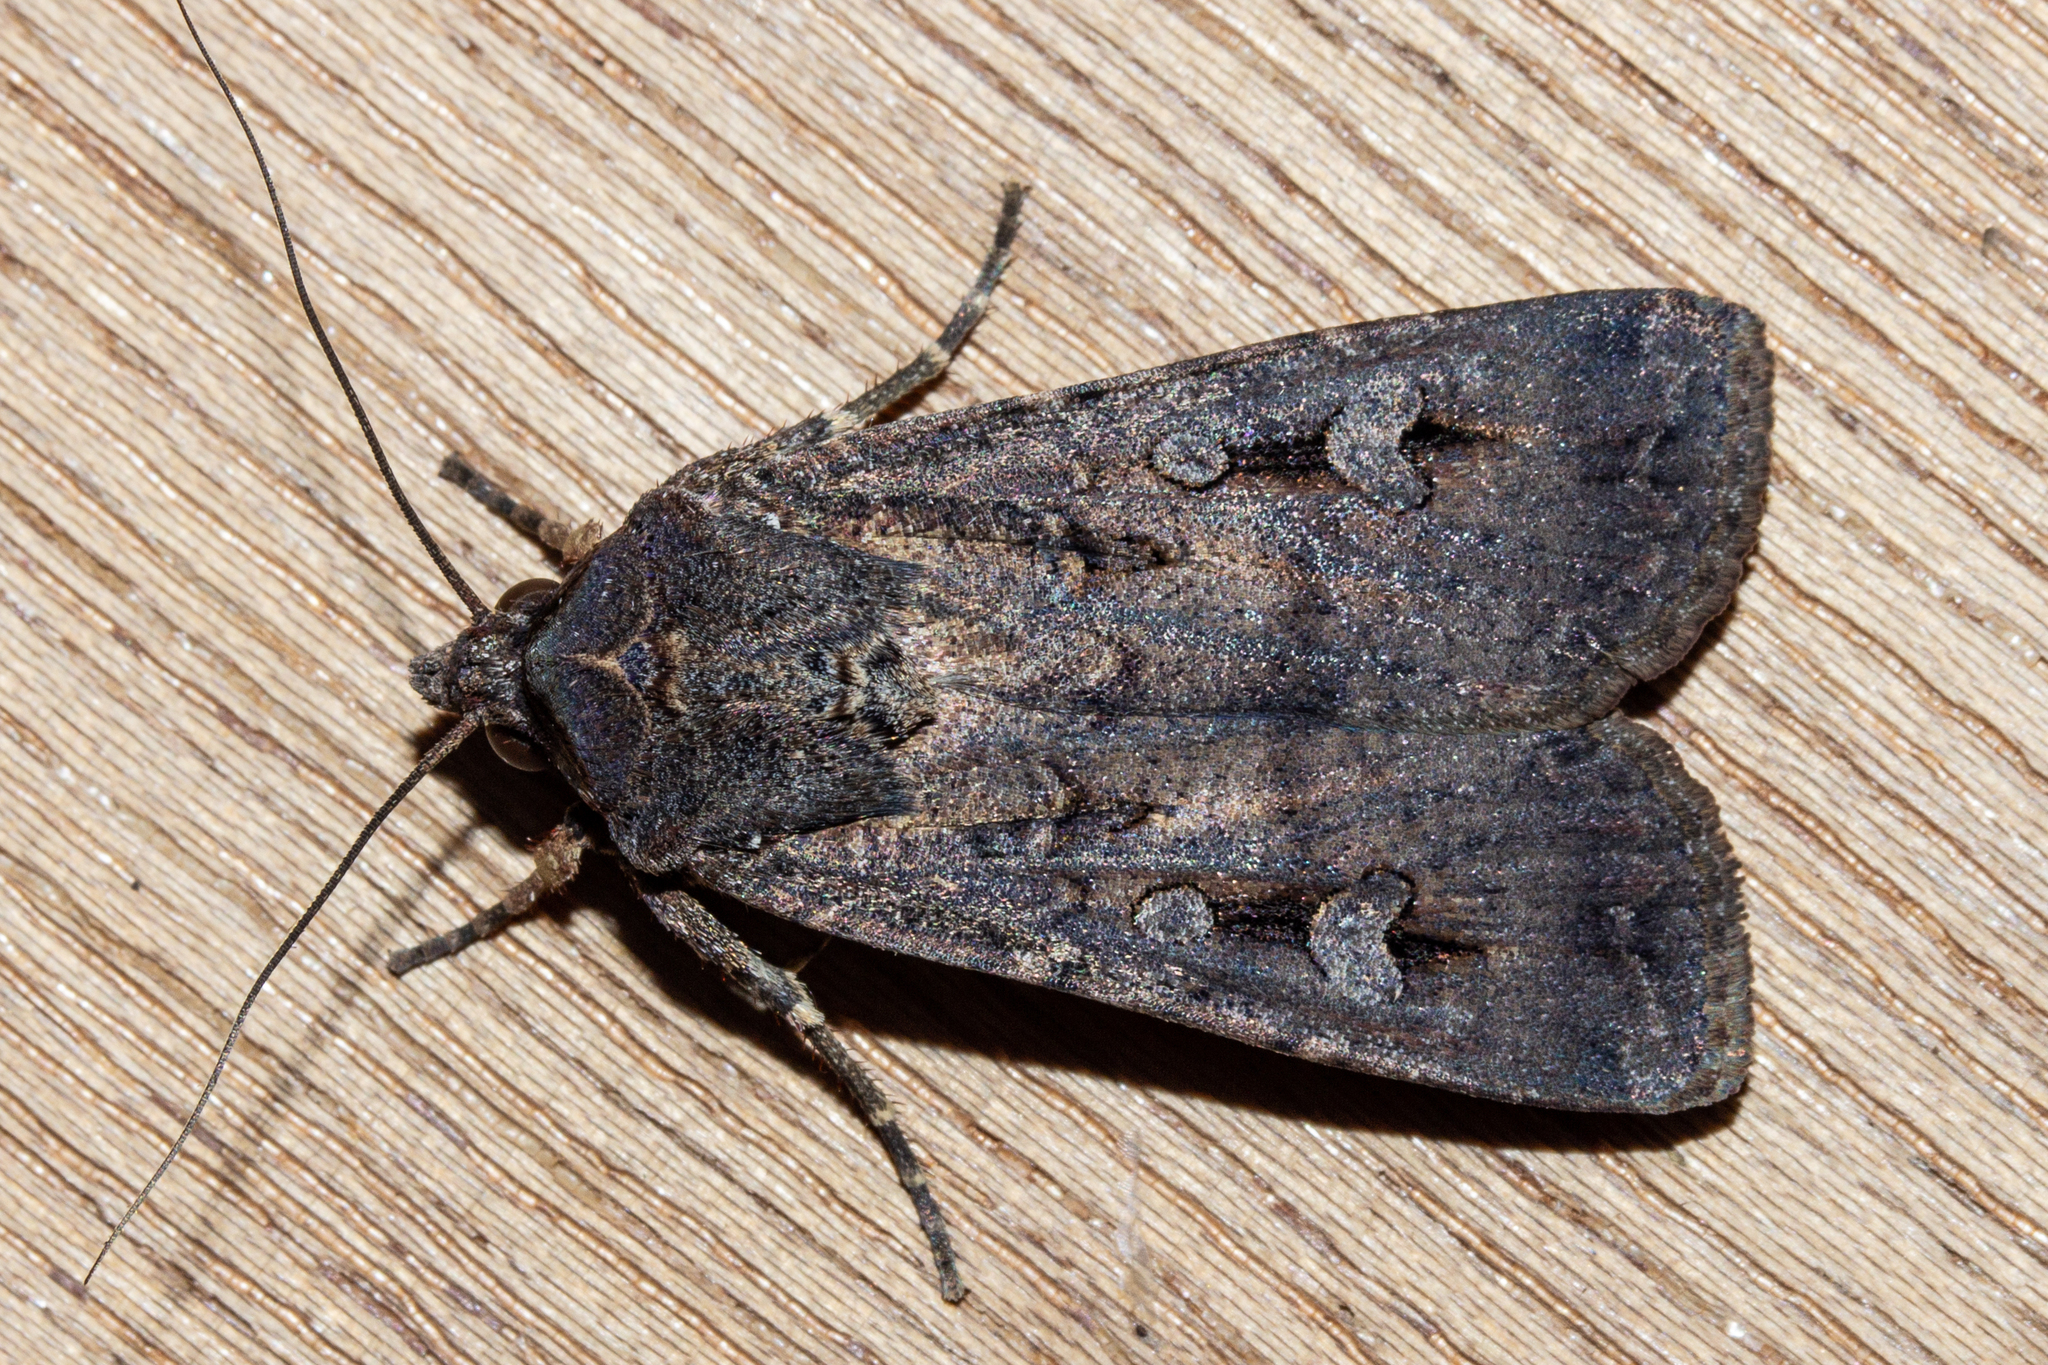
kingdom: Animalia
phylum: Arthropoda
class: Insecta
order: Lepidoptera
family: Noctuidae
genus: Agrotis
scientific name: Agrotis infusa
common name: Bogong moth
